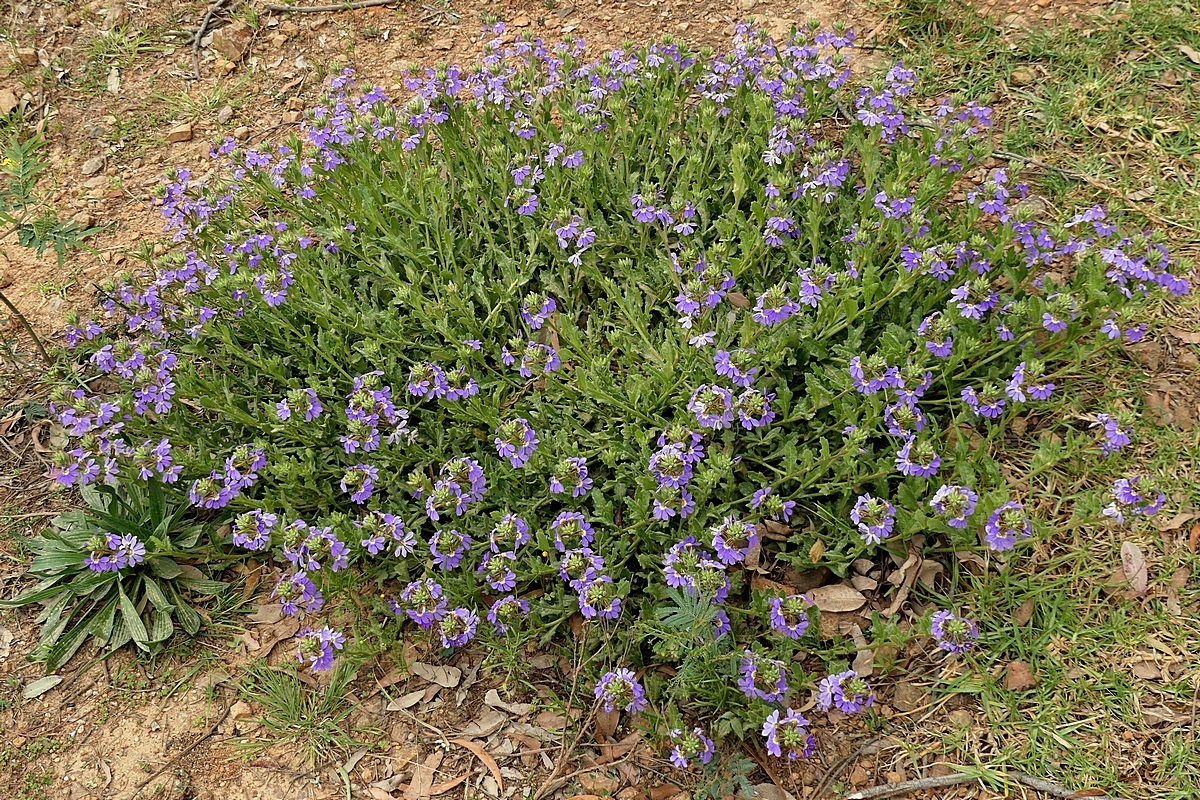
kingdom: Plantae
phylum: Tracheophyta
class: Magnoliopsida
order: Asterales
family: Goodeniaceae
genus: Scaevola
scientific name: Scaevola aemula
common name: Common fanflower
